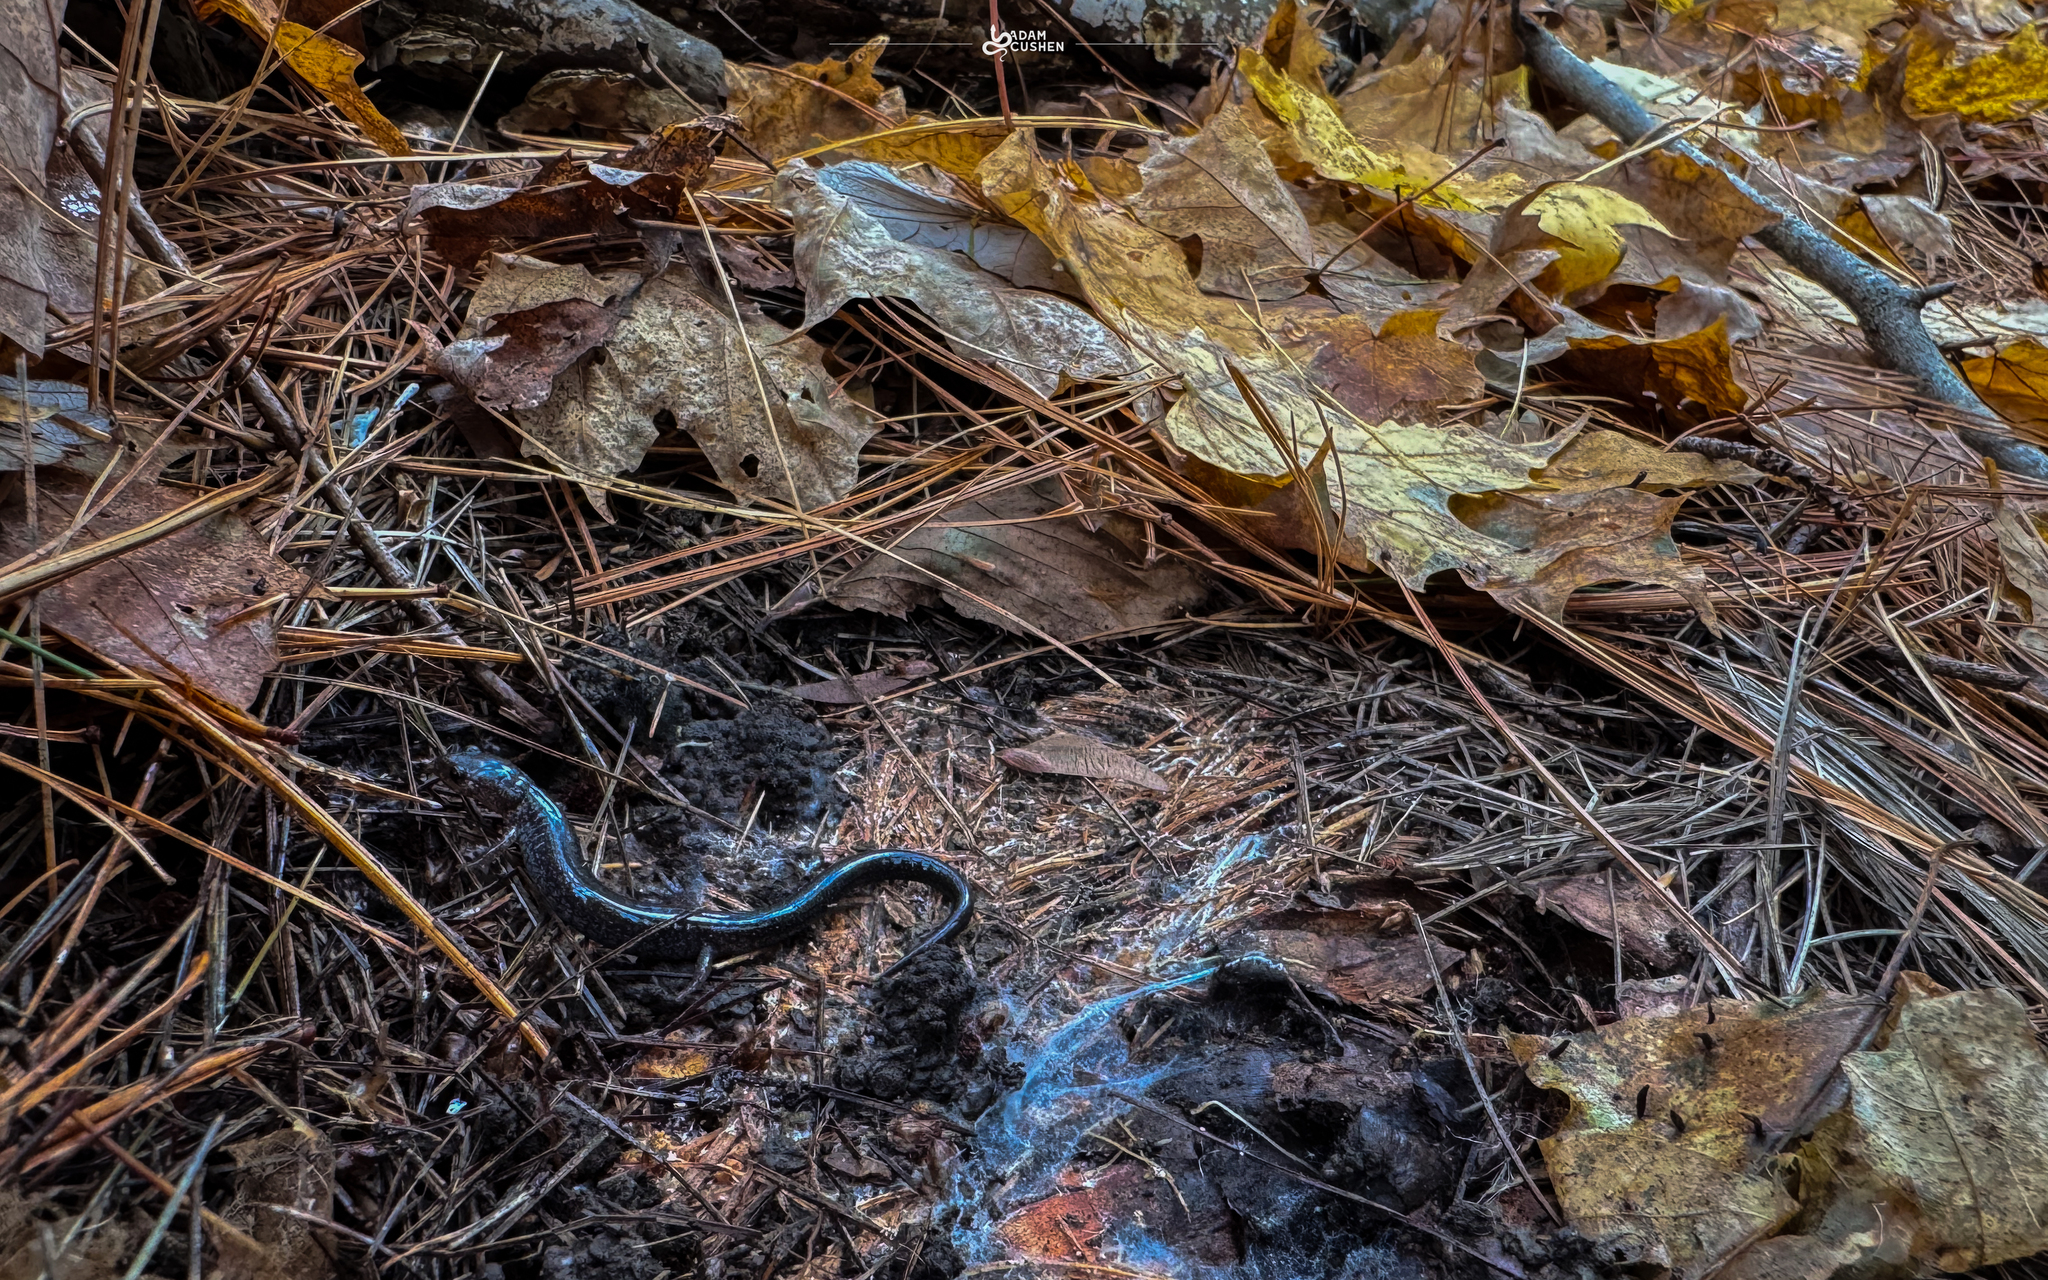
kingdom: Animalia
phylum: Chordata
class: Amphibia
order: Caudata
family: Plethodontidae
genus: Plethodon
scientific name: Plethodon cinereus
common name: Redback salamander
